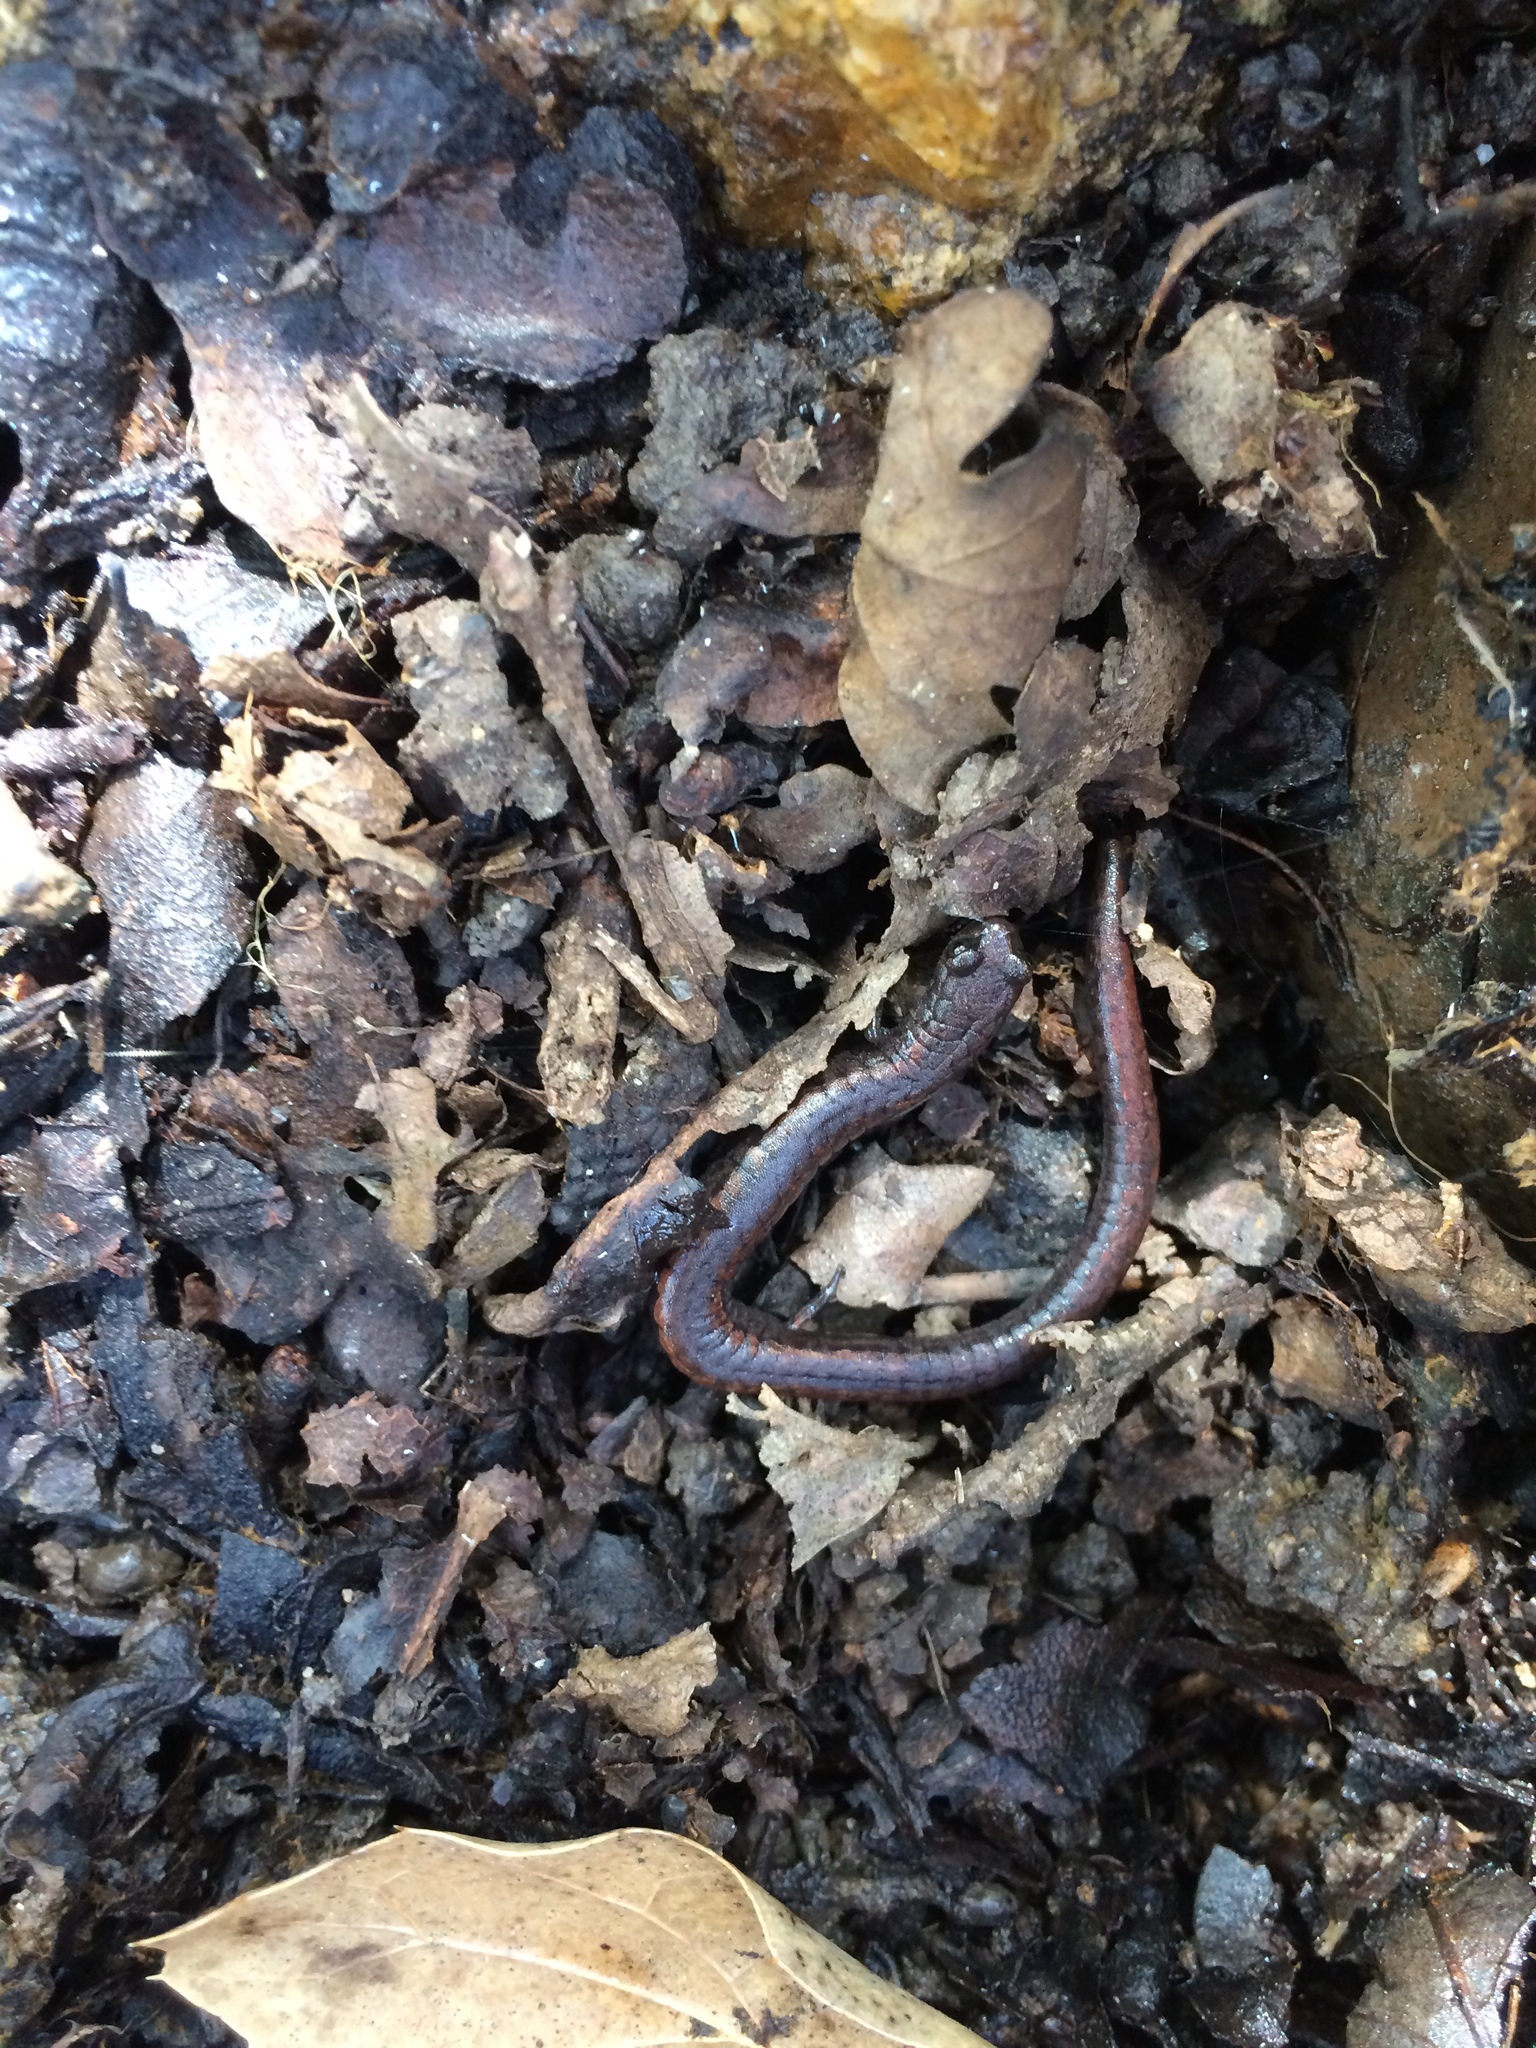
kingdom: Animalia
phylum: Chordata
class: Amphibia
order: Caudata
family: Plethodontidae
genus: Batrachoseps
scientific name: Batrachoseps attenuatus
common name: California slender salamander
